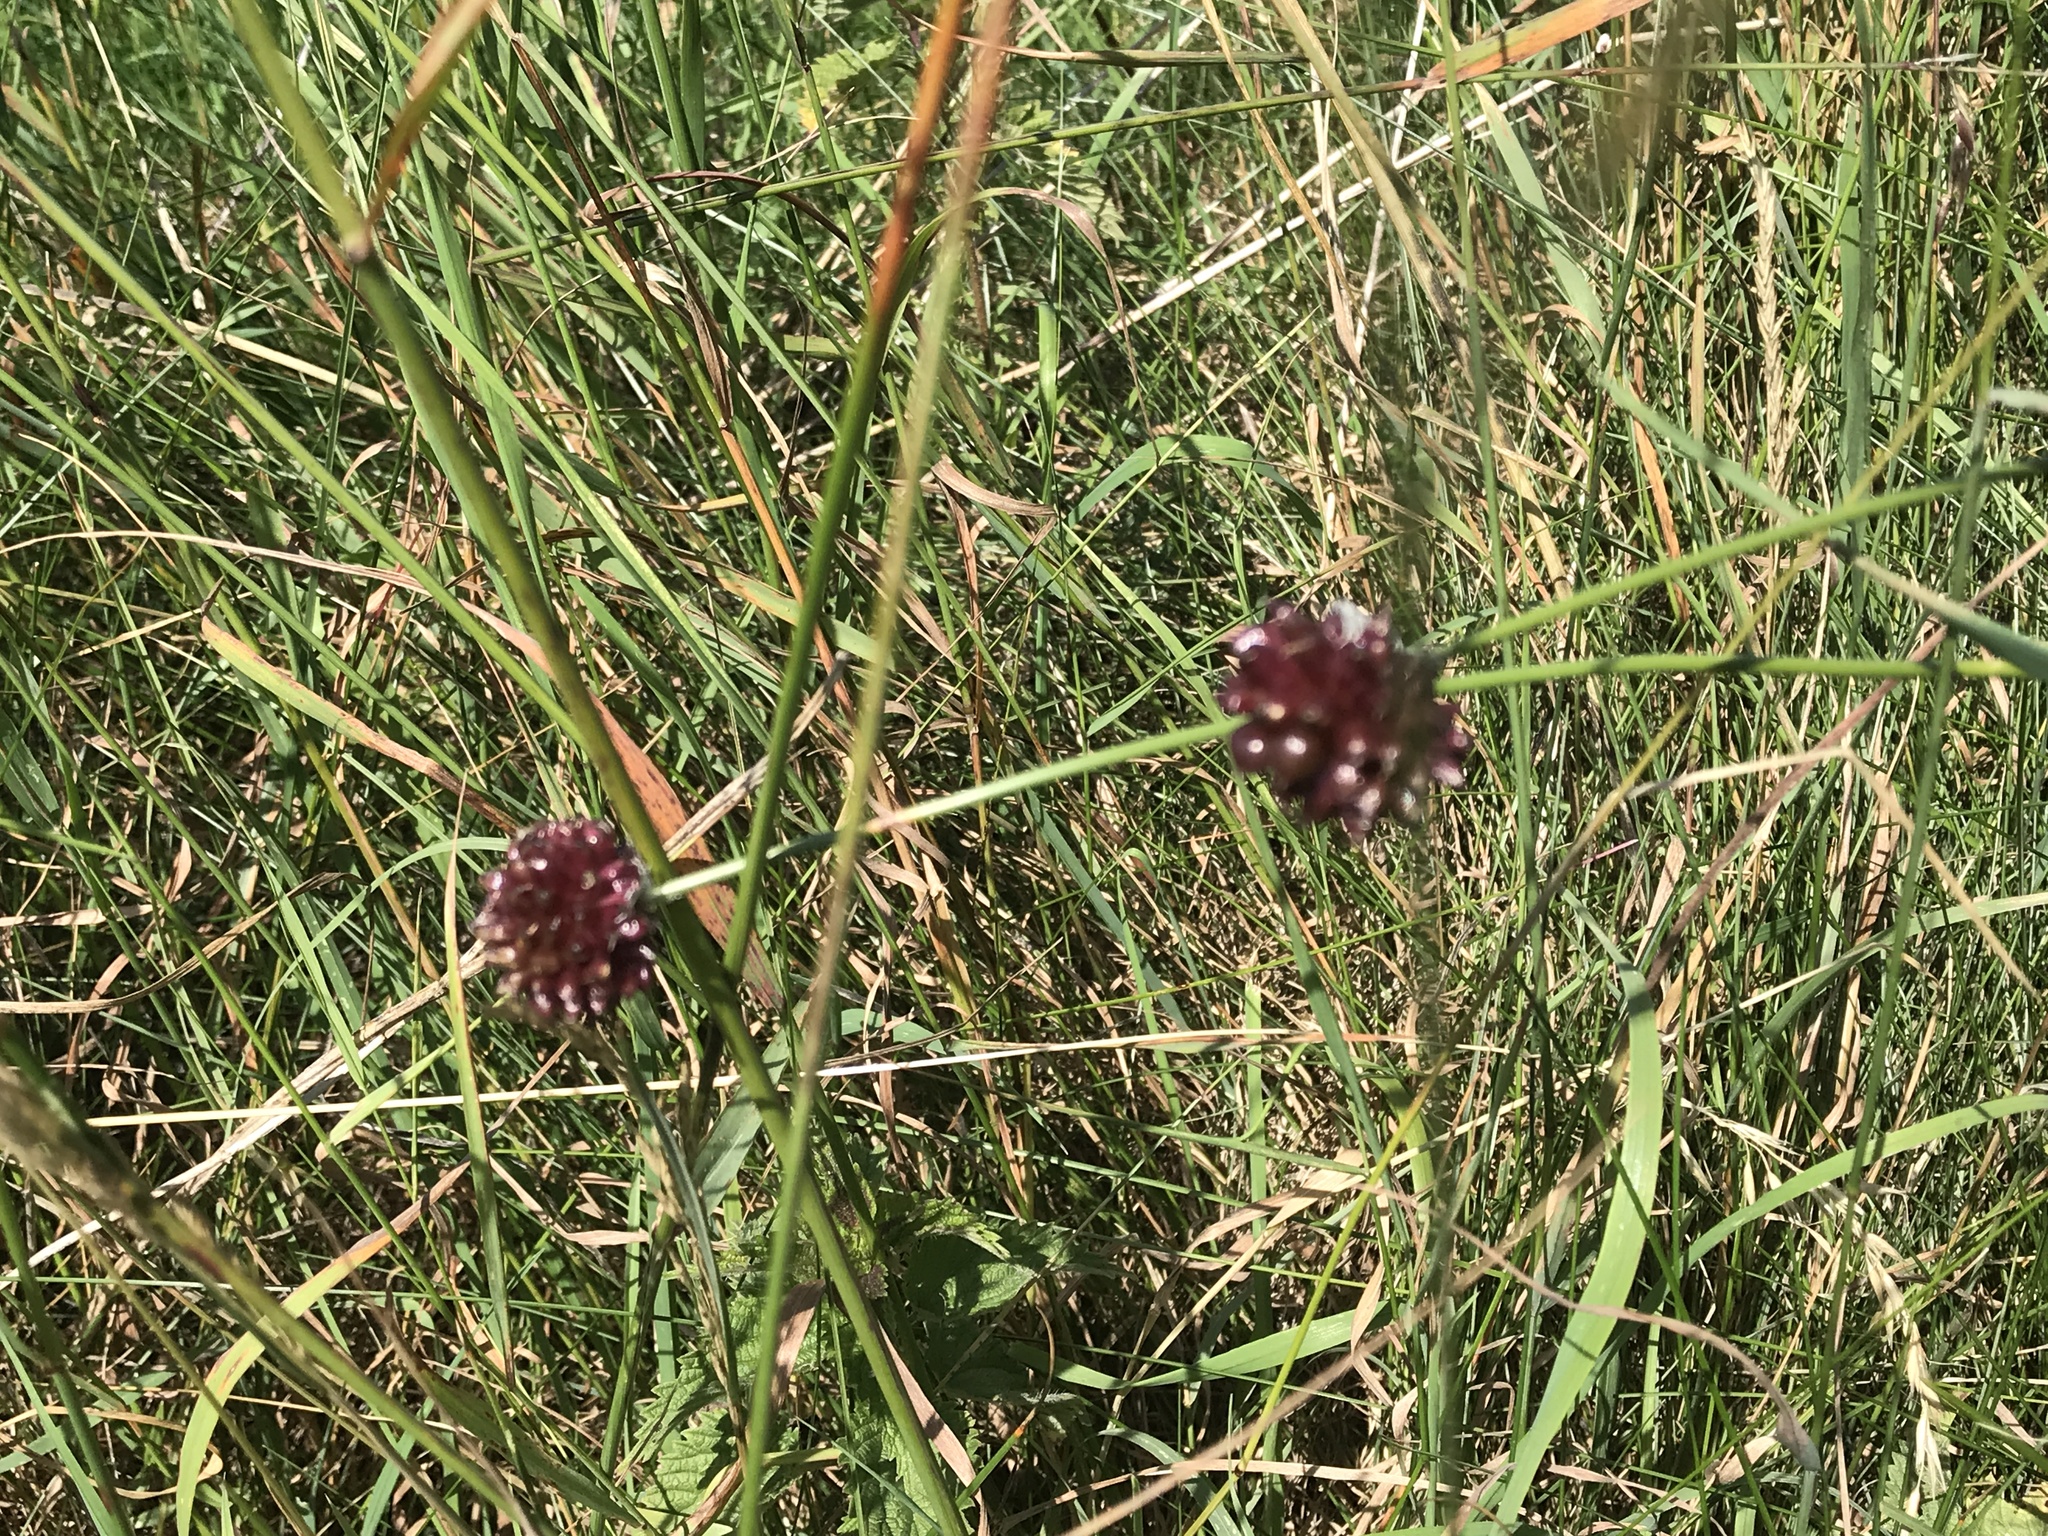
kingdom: Plantae
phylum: Tracheophyta
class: Liliopsida
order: Asparagales
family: Amaryllidaceae
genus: Allium
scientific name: Allium vineale
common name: Crow garlic
